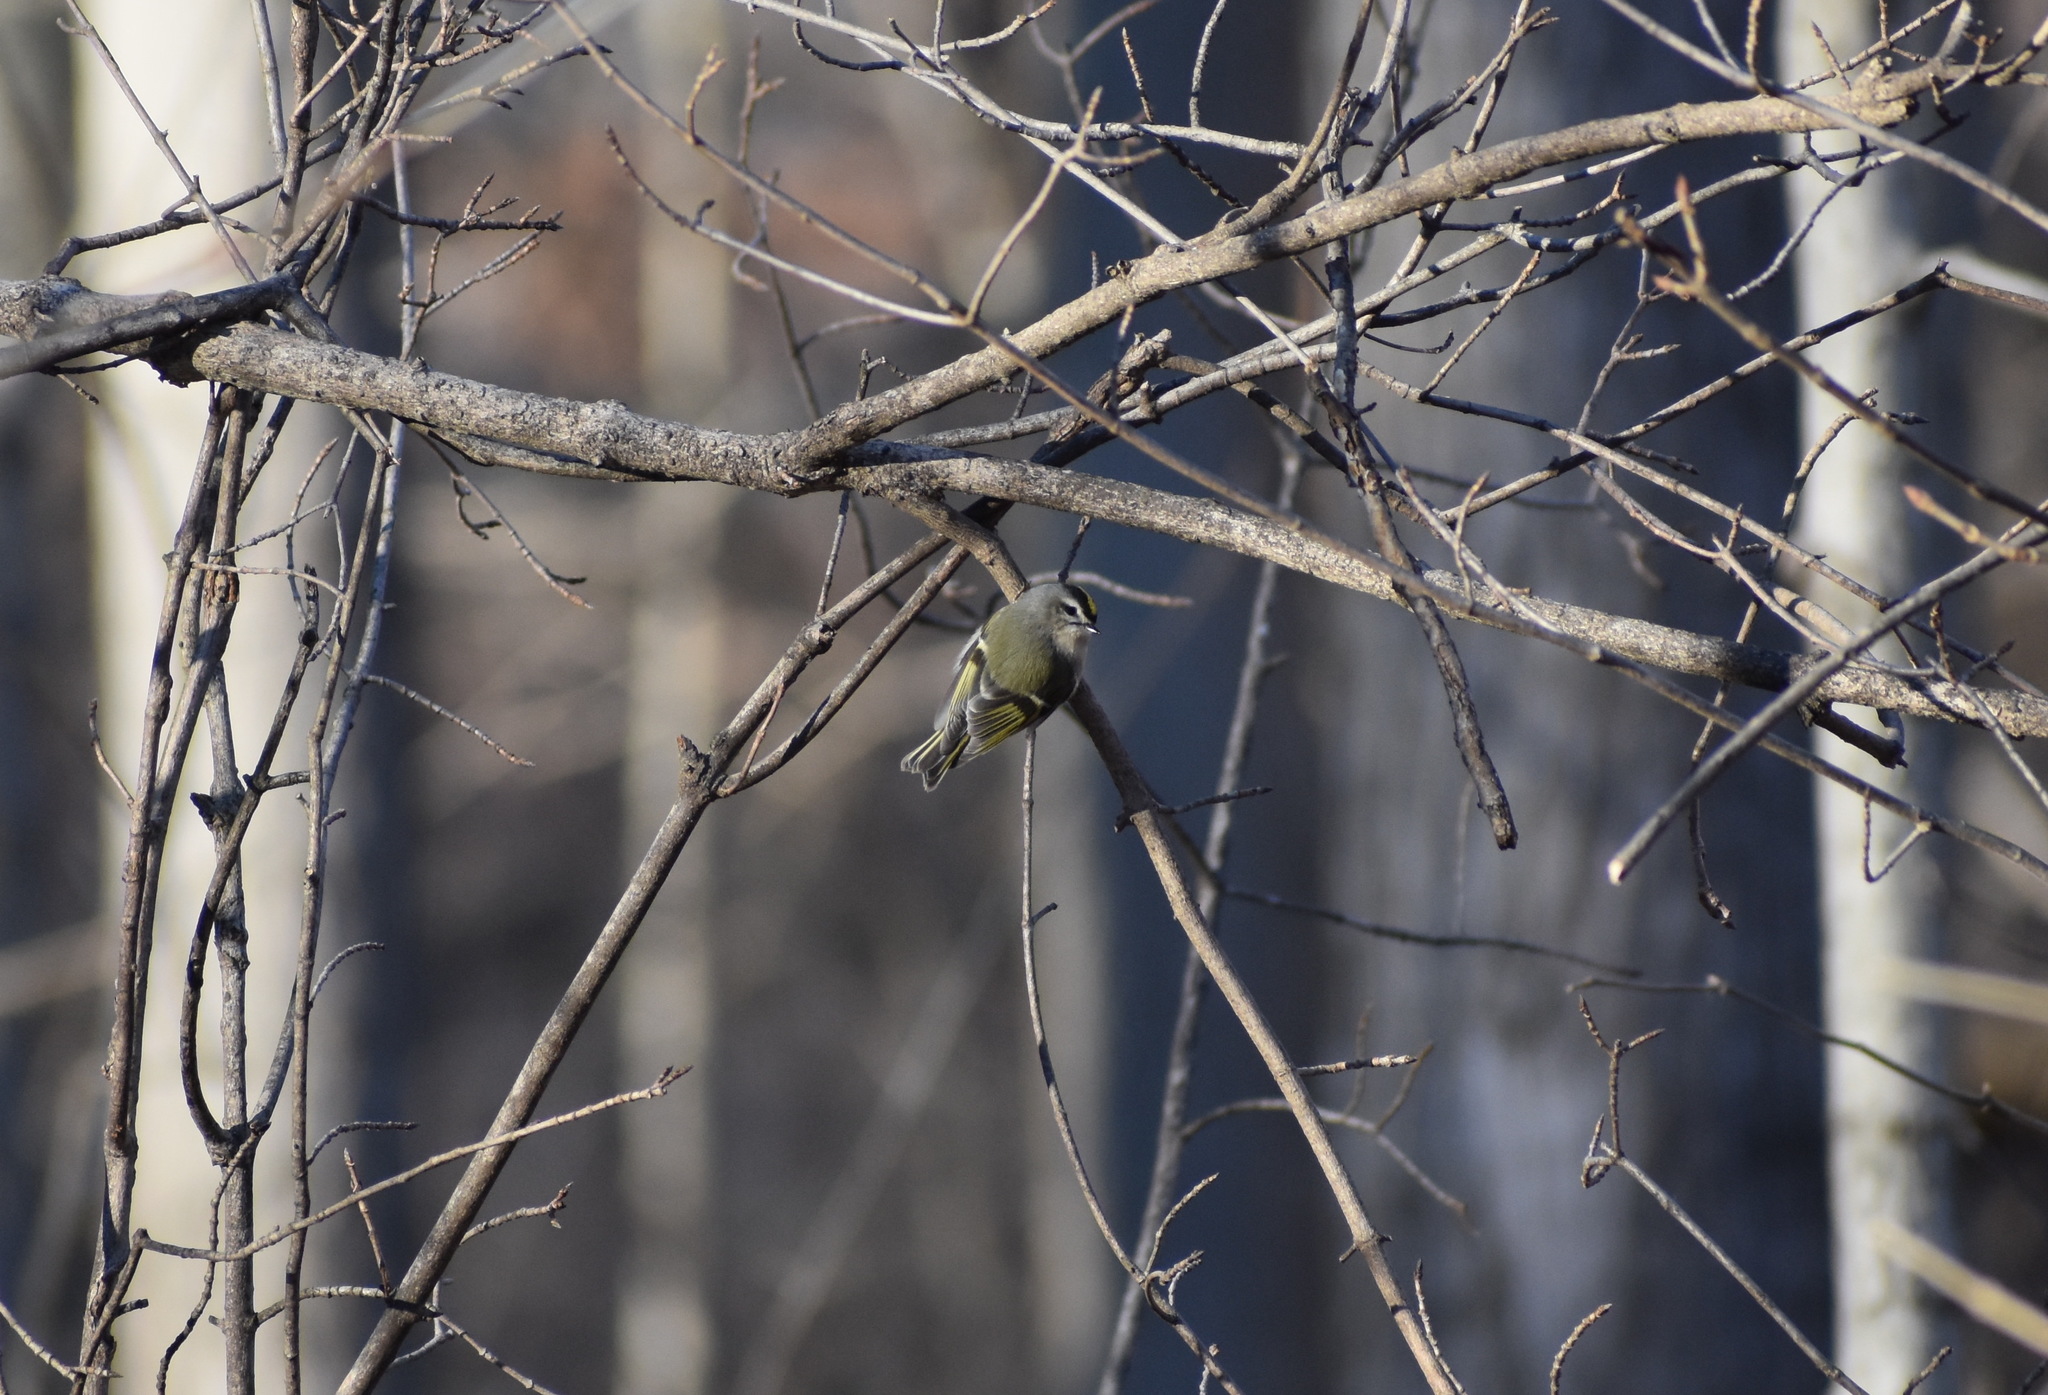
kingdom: Animalia
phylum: Chordata
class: Aves
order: Passeriformes
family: Regulidae
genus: Regulus
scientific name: Regulus satrapa
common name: Golden-crowned kinglet
